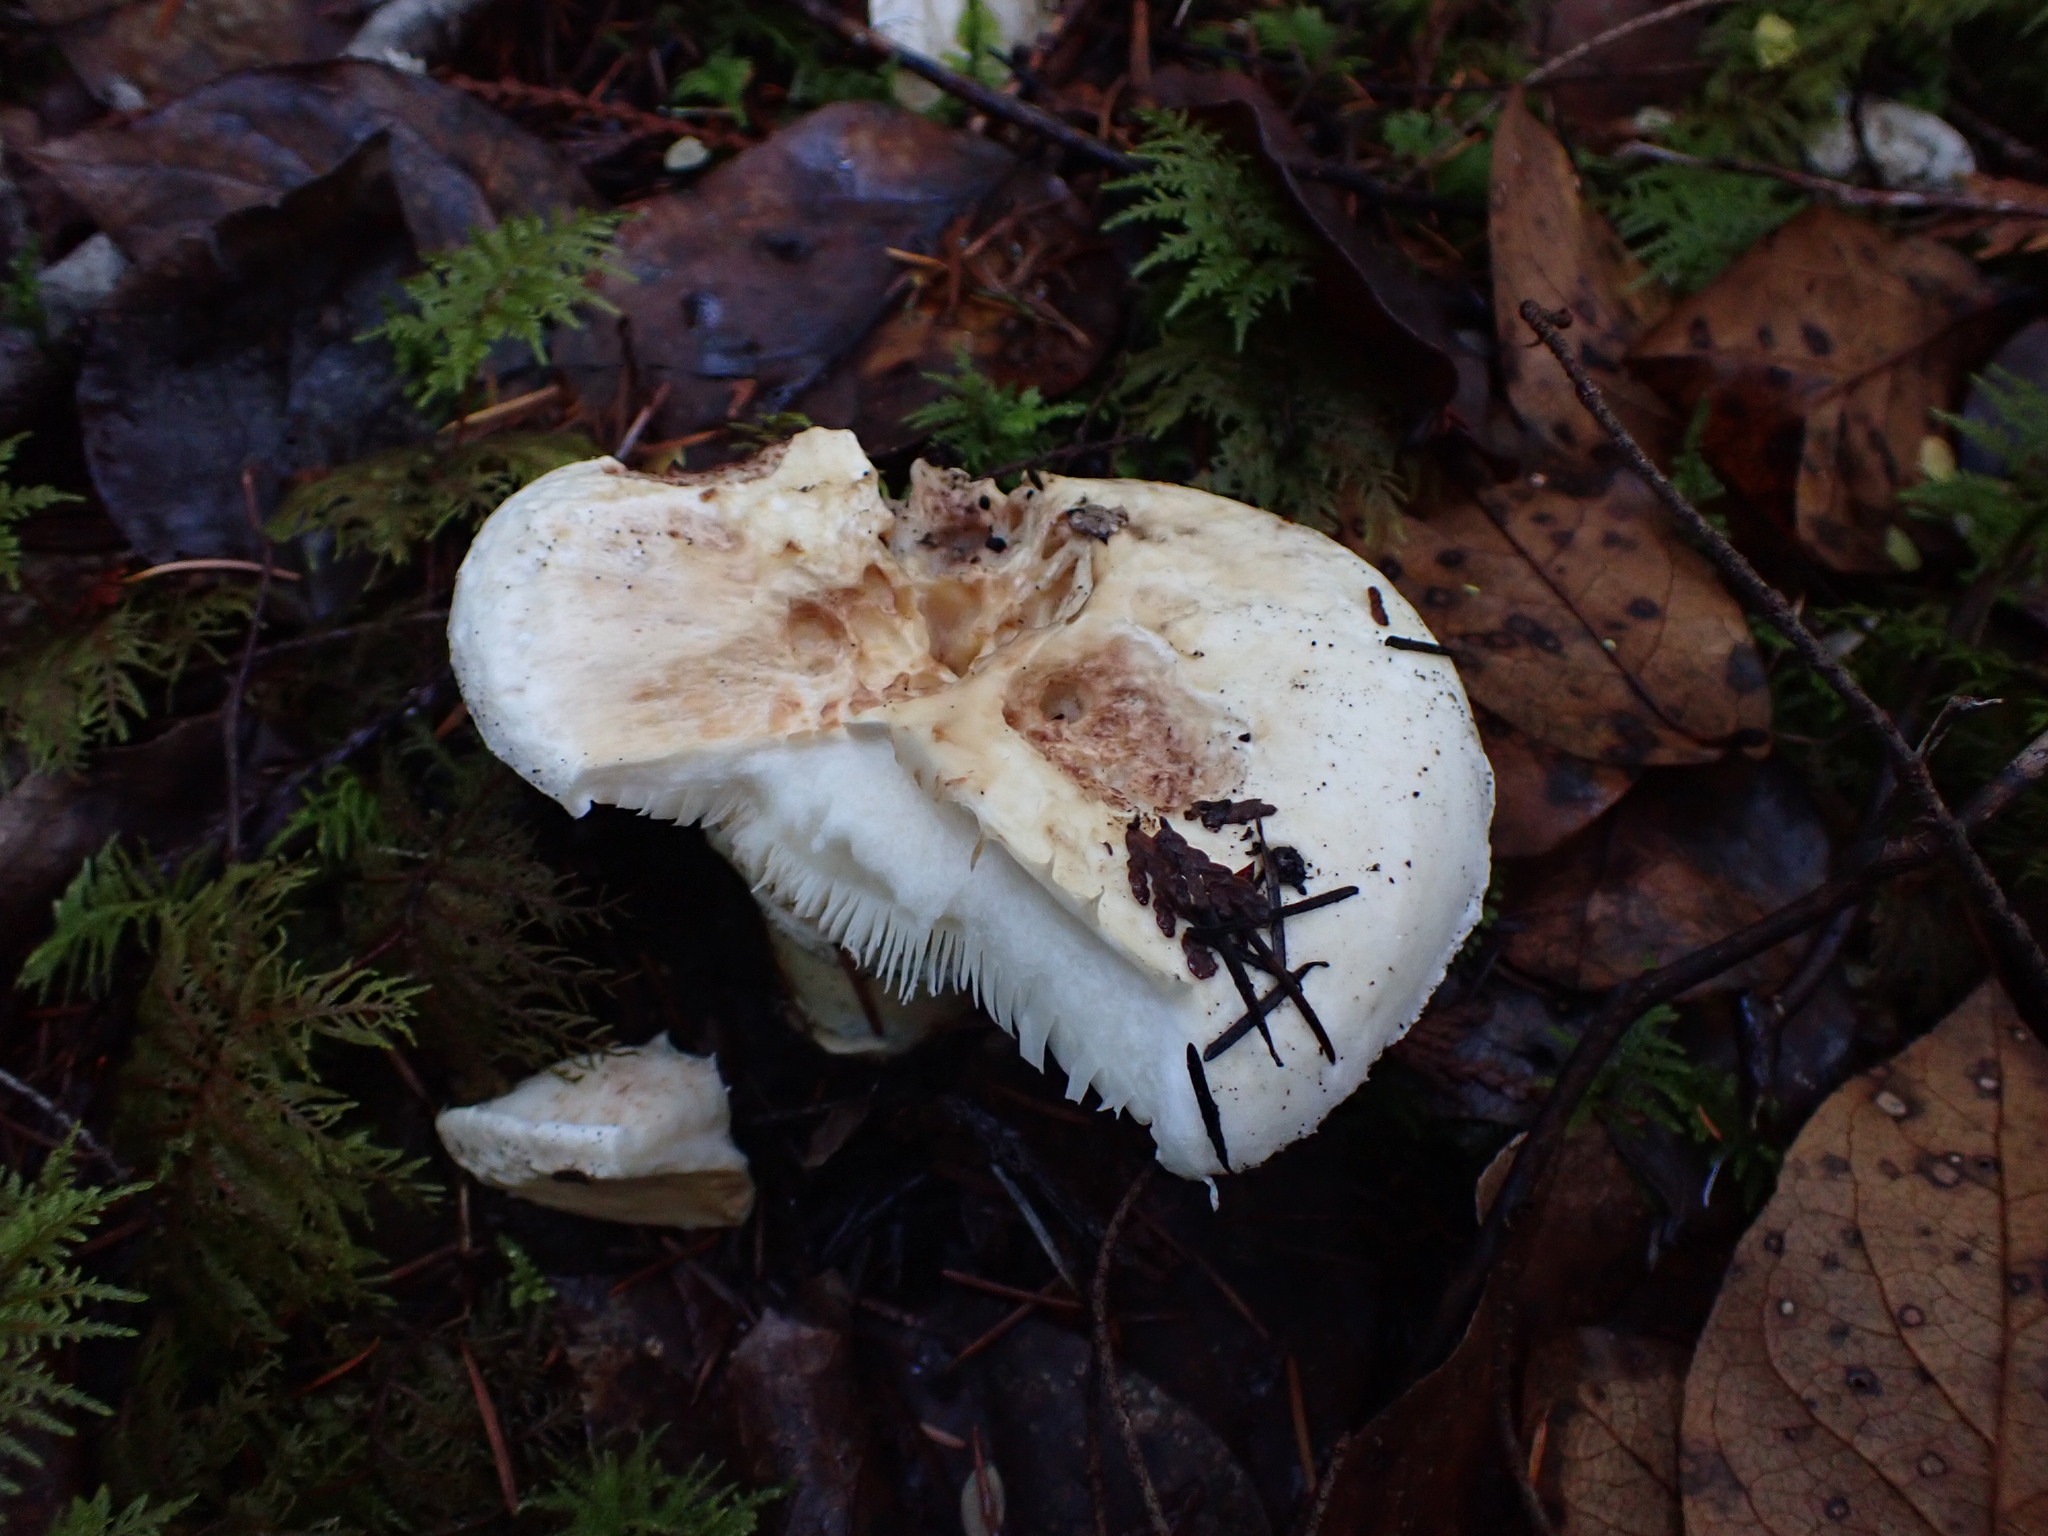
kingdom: Fungi
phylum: Basidiomycota
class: Agaricomycetes
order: Agaricales
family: Tricholomataceae
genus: Tricholoma
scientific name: Tricholoma murrillianum
